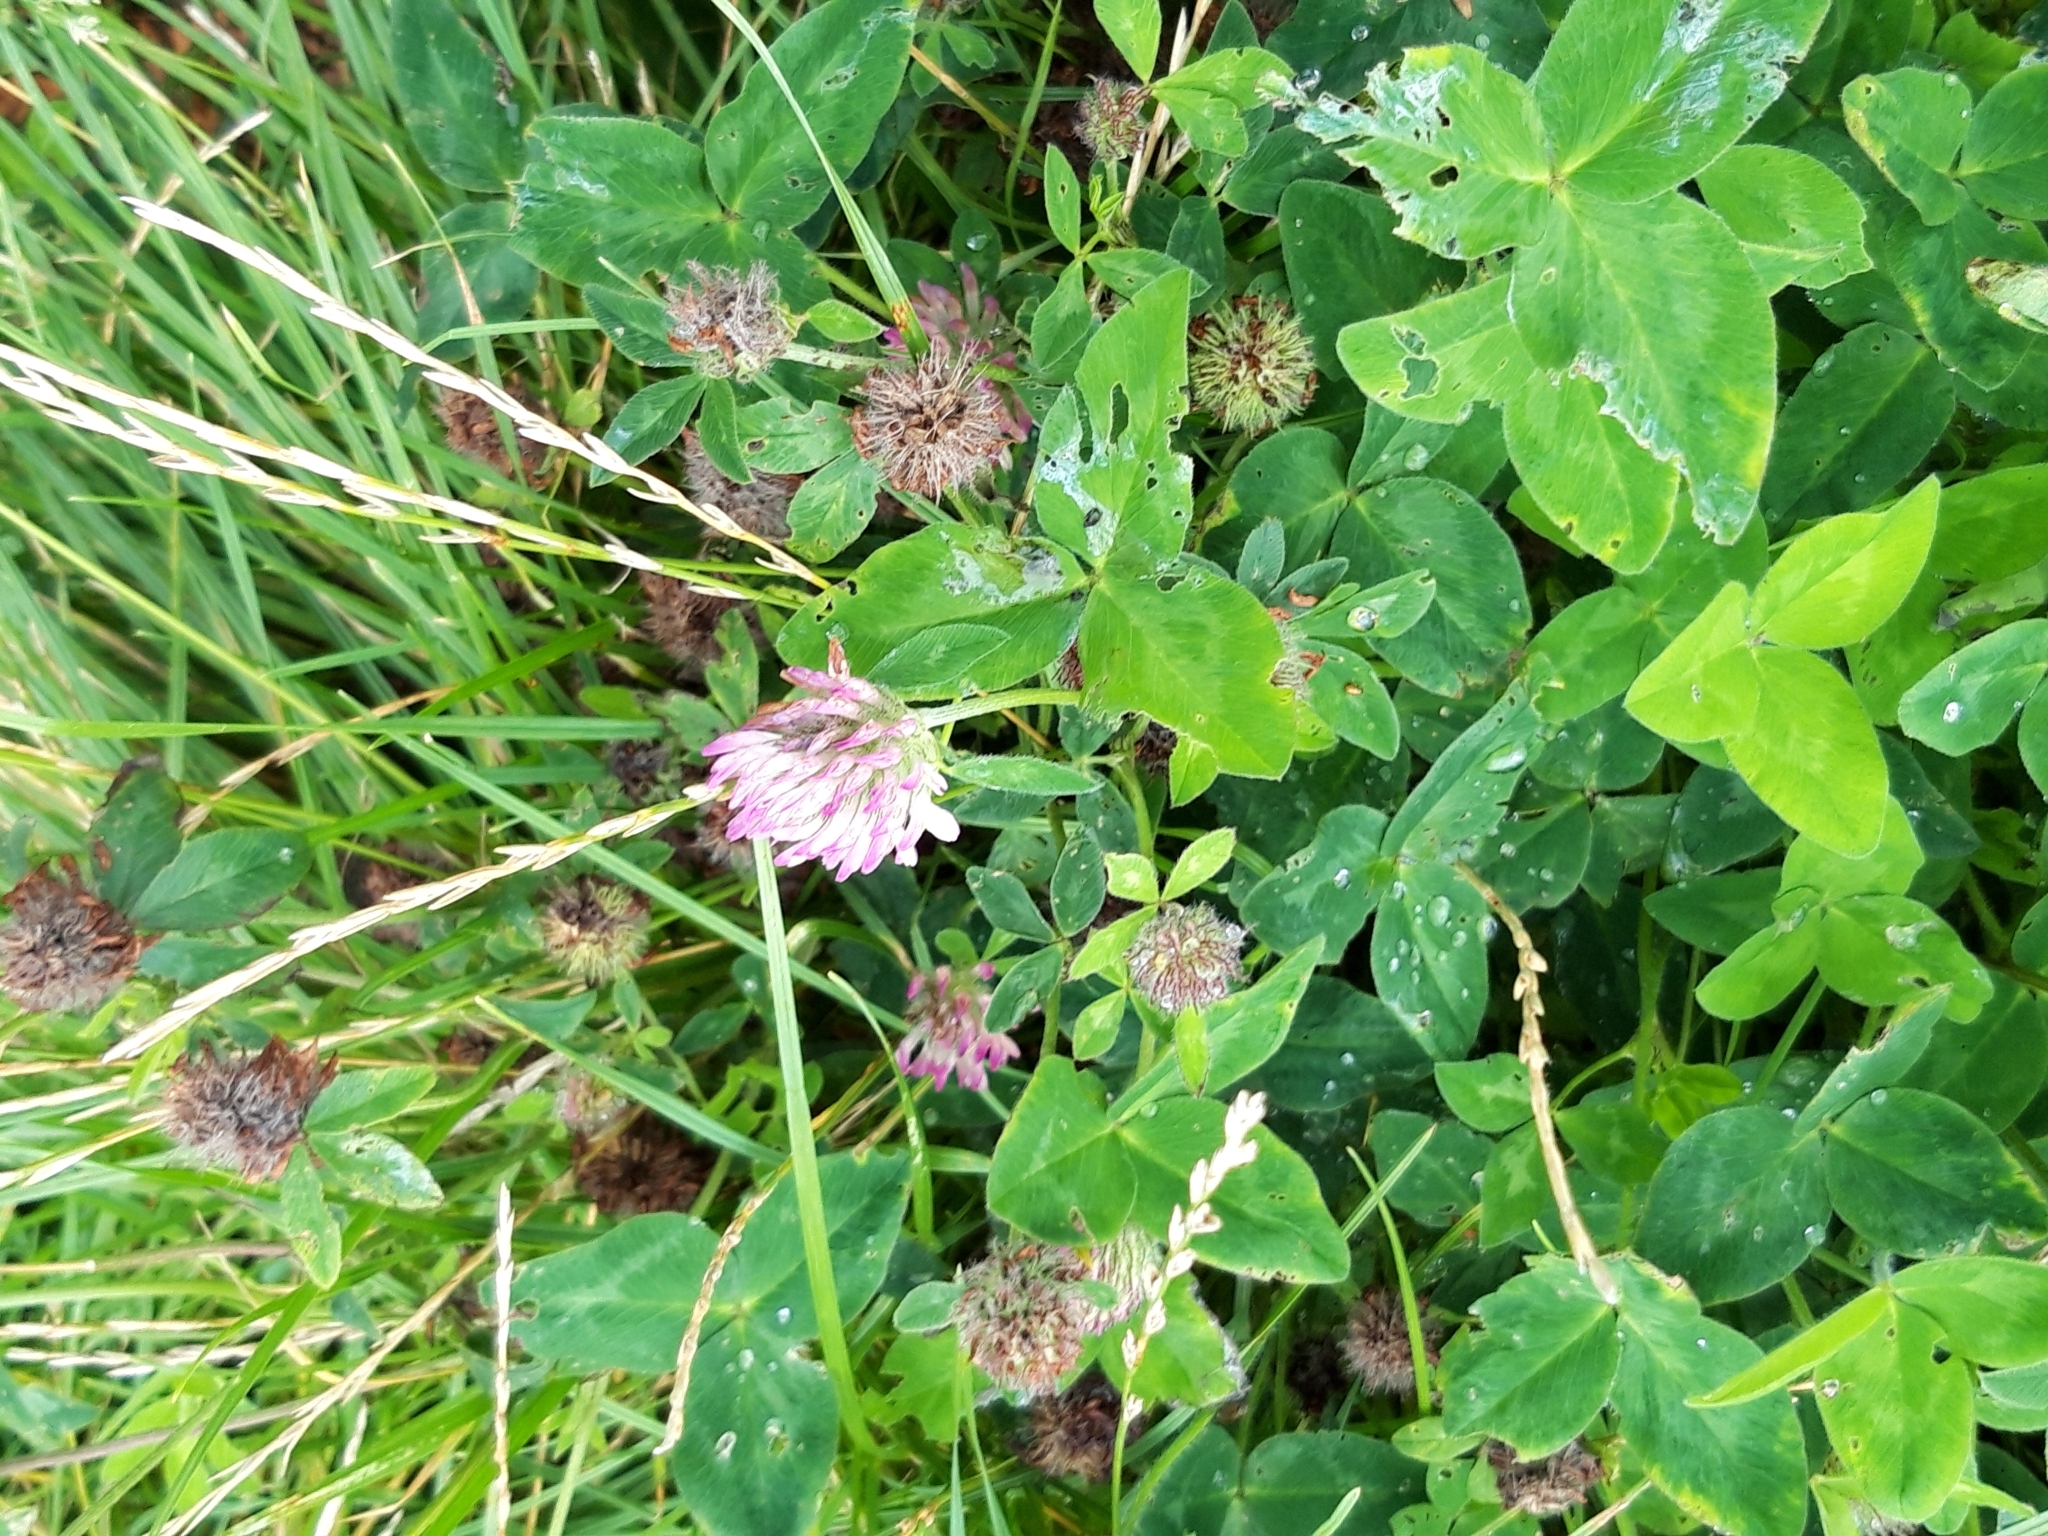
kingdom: Plantae
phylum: Tracheophyta
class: Magnoliopsida
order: Fabales
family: Fabaceae
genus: Trifolium
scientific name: Trifolium pratense
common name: Red clover
